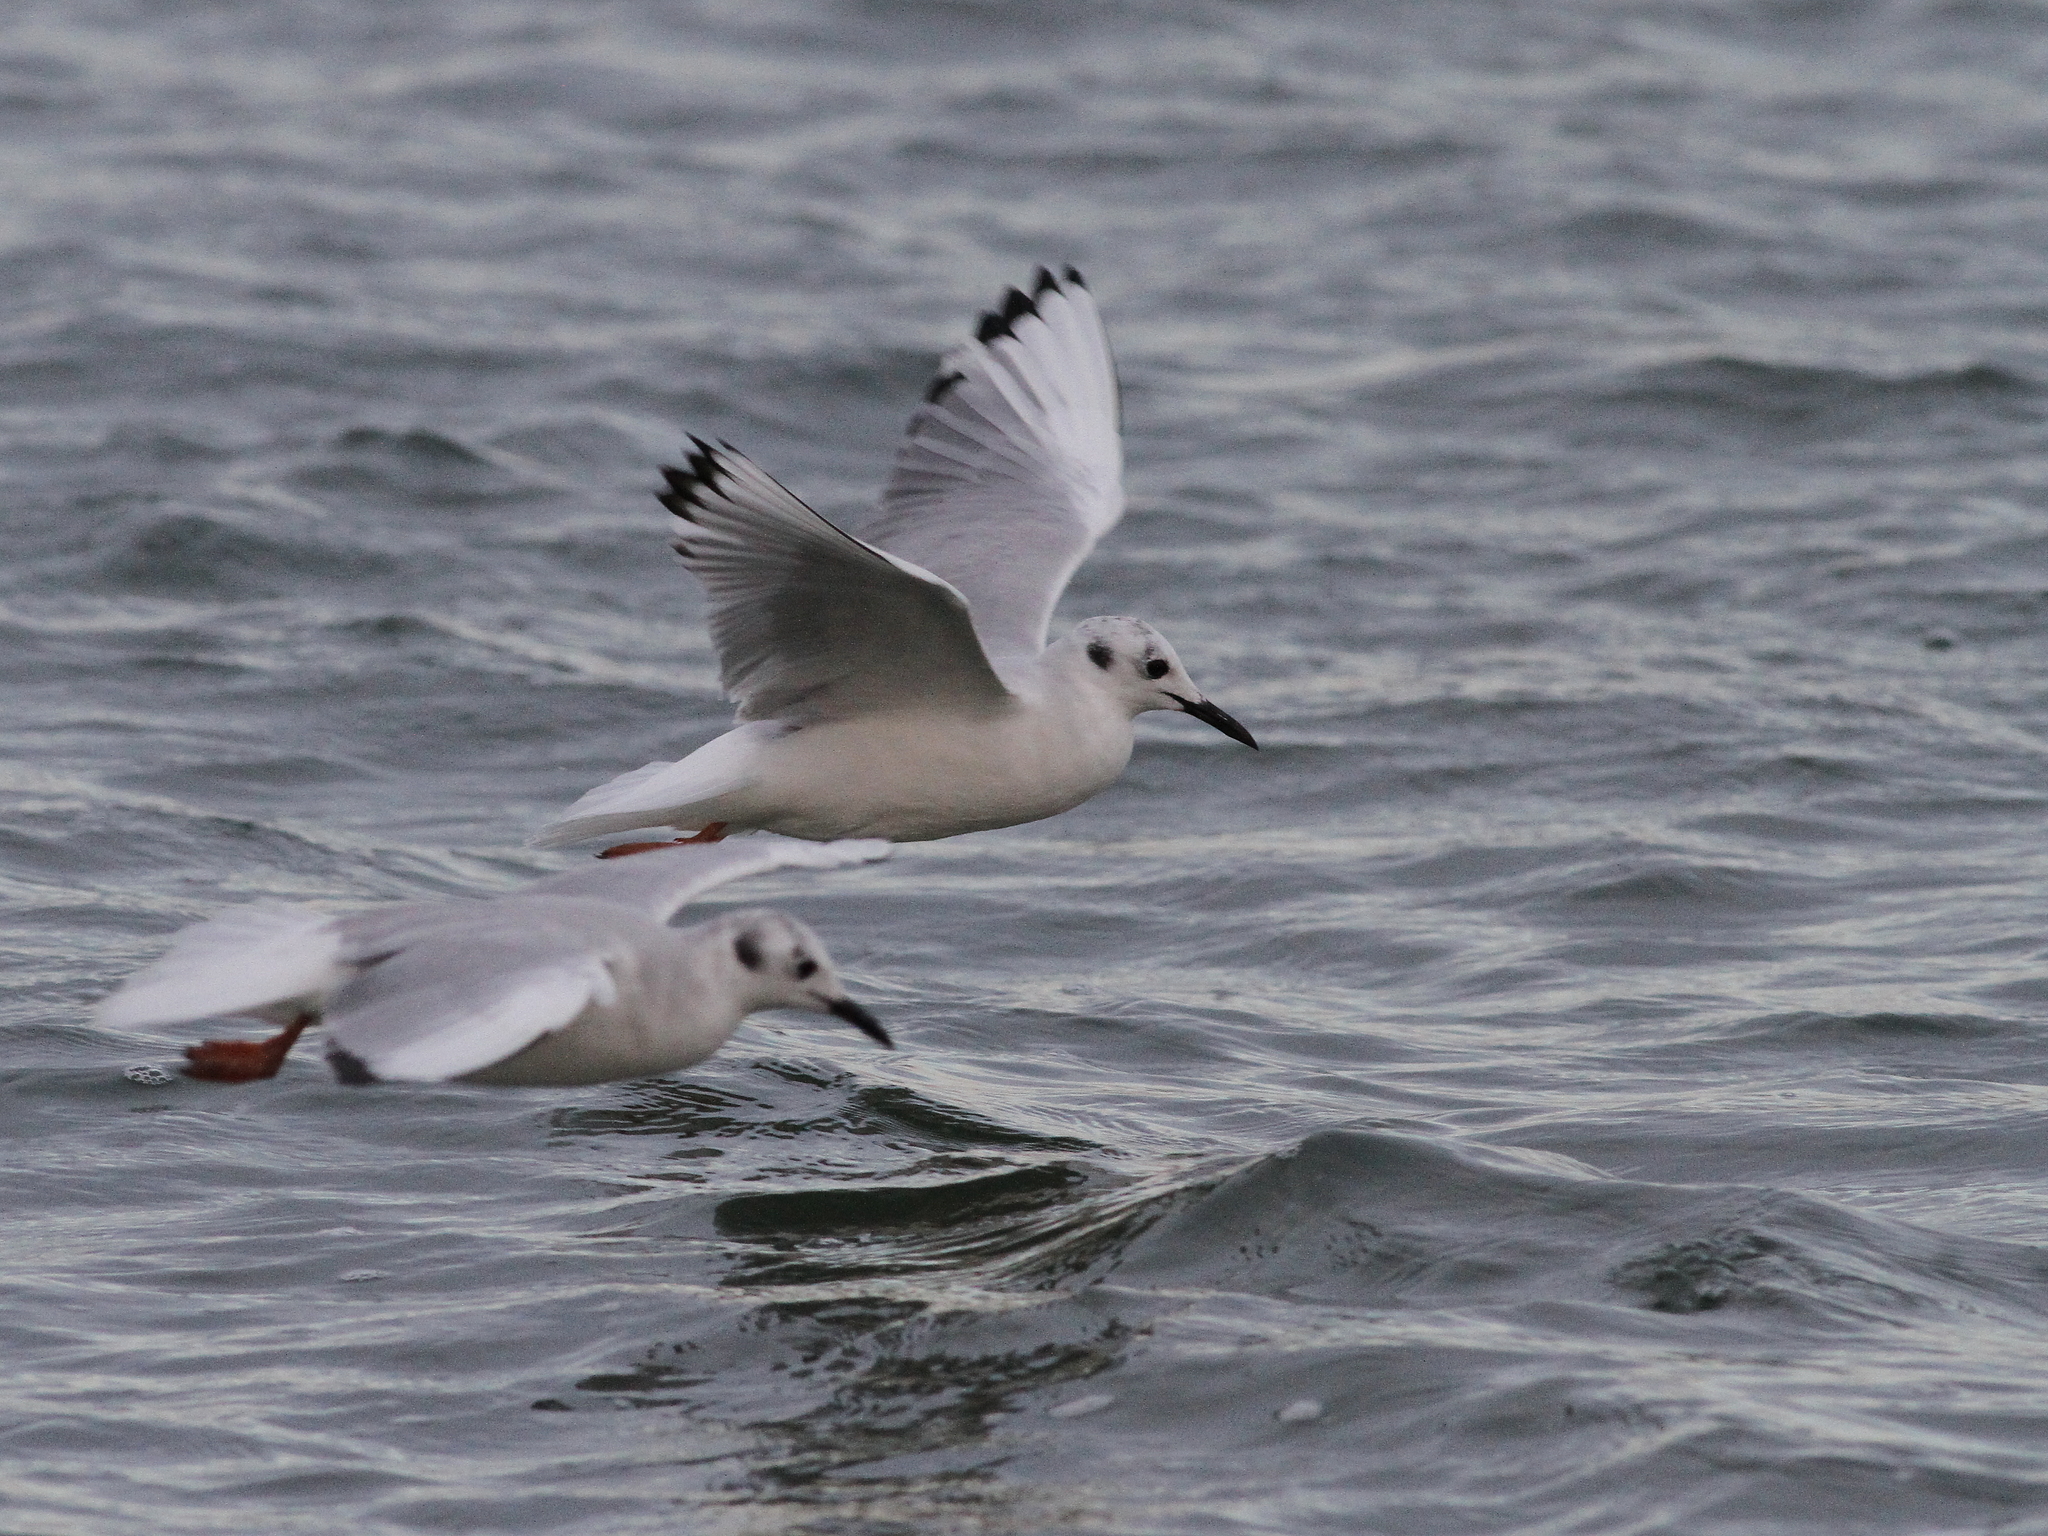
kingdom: Animalia
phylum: Chordata
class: Aves
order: Charadriiformes
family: Laridae
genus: Chroicocephalus
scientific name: Chroicocephalus philadelphia
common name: Bonaparte's gull
